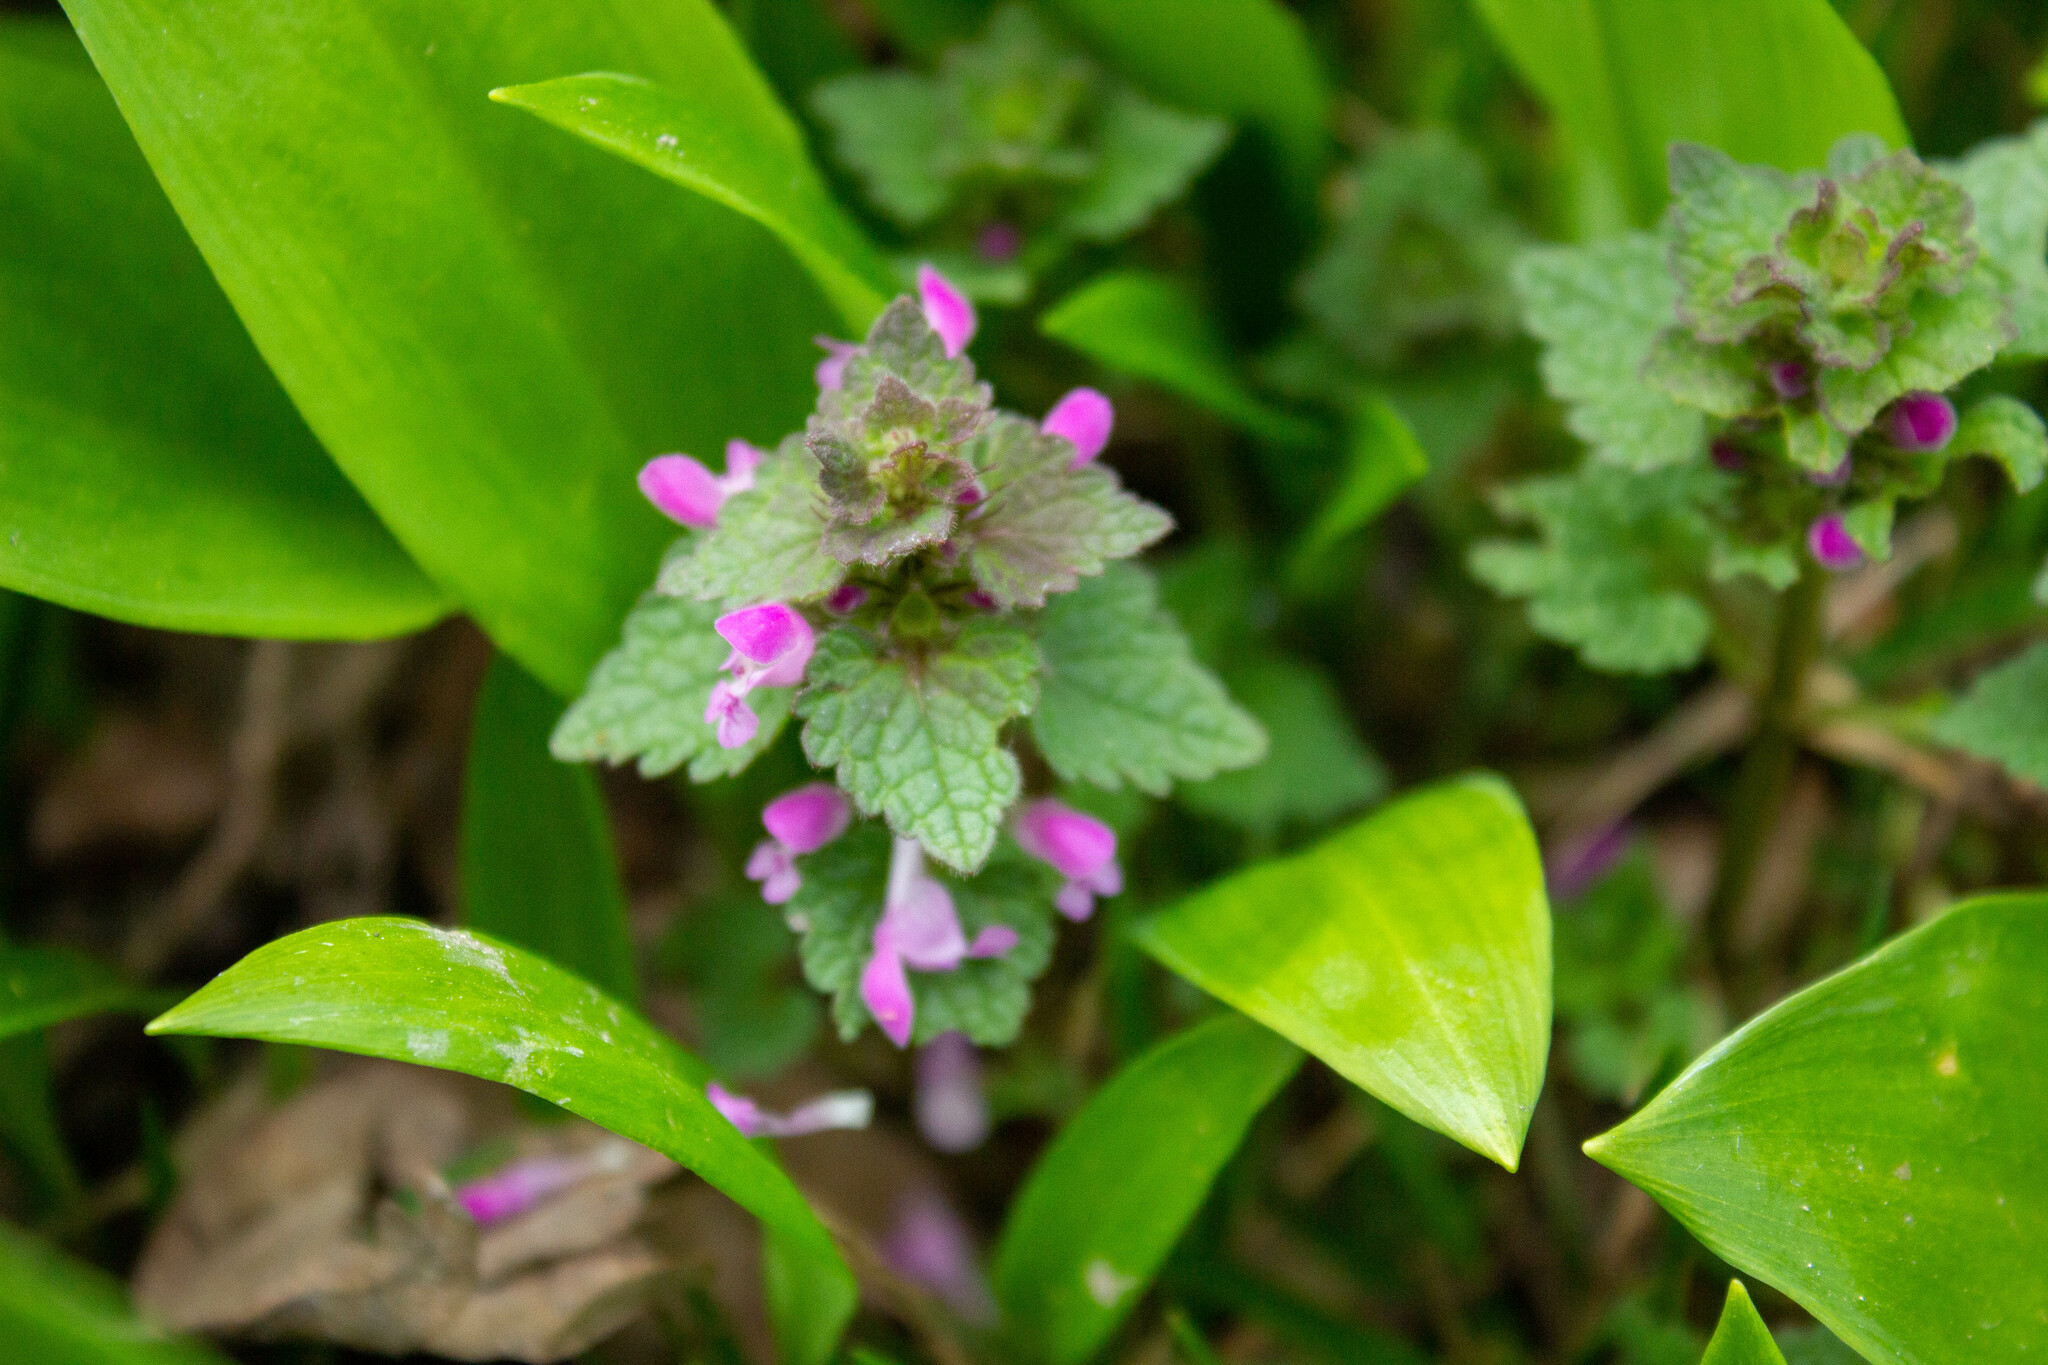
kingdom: Plantae
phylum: Tracheophyta
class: Magnoliopsida
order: Lamiales
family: Lamiaceae
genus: Lamium
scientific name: Lamium purpureum
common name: Red dead-nettle
